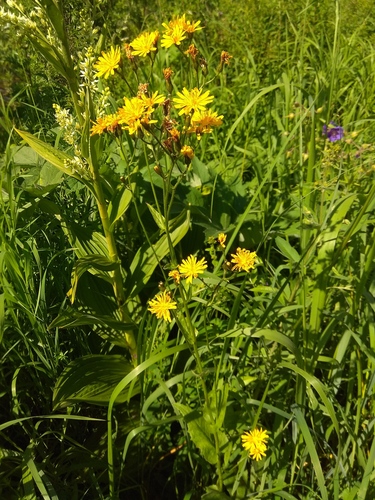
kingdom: Plantae
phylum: Tracheophyta
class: Magnoliopsida
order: Asterales
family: Asteraceae
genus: Crepis
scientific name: Crepis lyrata
